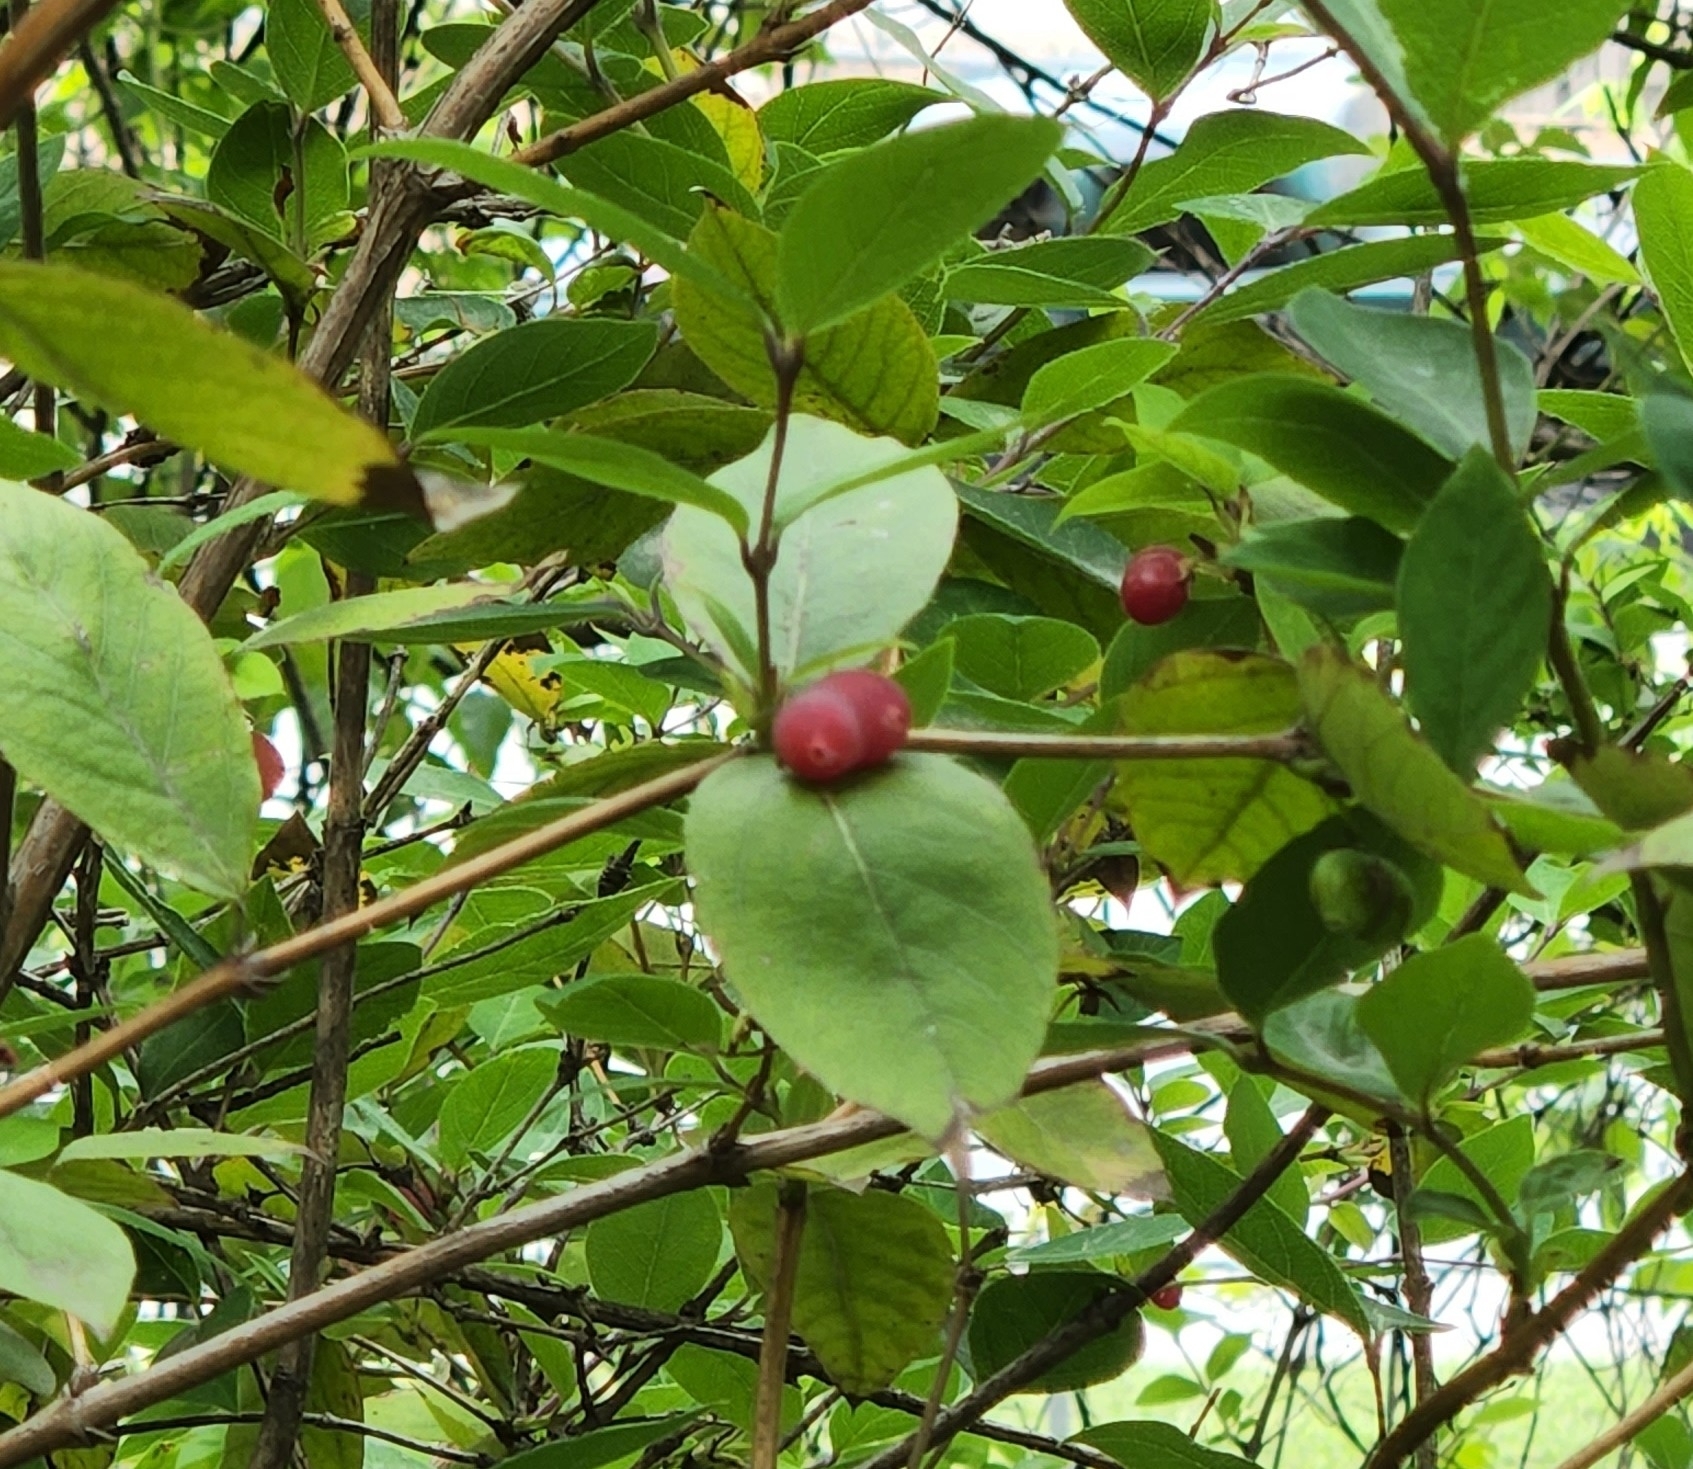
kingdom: Plantae
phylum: Tracheophyta
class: Magnoliopsida
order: Dipsacales
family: Caprifoliaceae
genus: Lonicera
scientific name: Lonicera fragrantissima
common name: Fragrant honeysuckle
